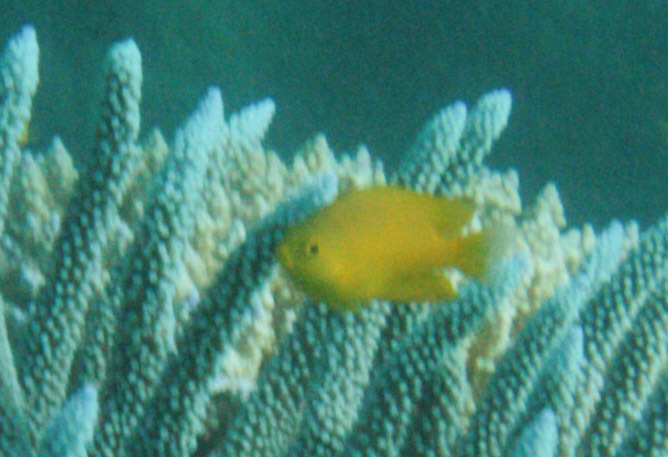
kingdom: Animalia
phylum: Chordata
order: Perciformes
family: Pomacentridae
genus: Pomacentrus
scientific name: Pomacentrus moluccensis
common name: Lemon damsel
